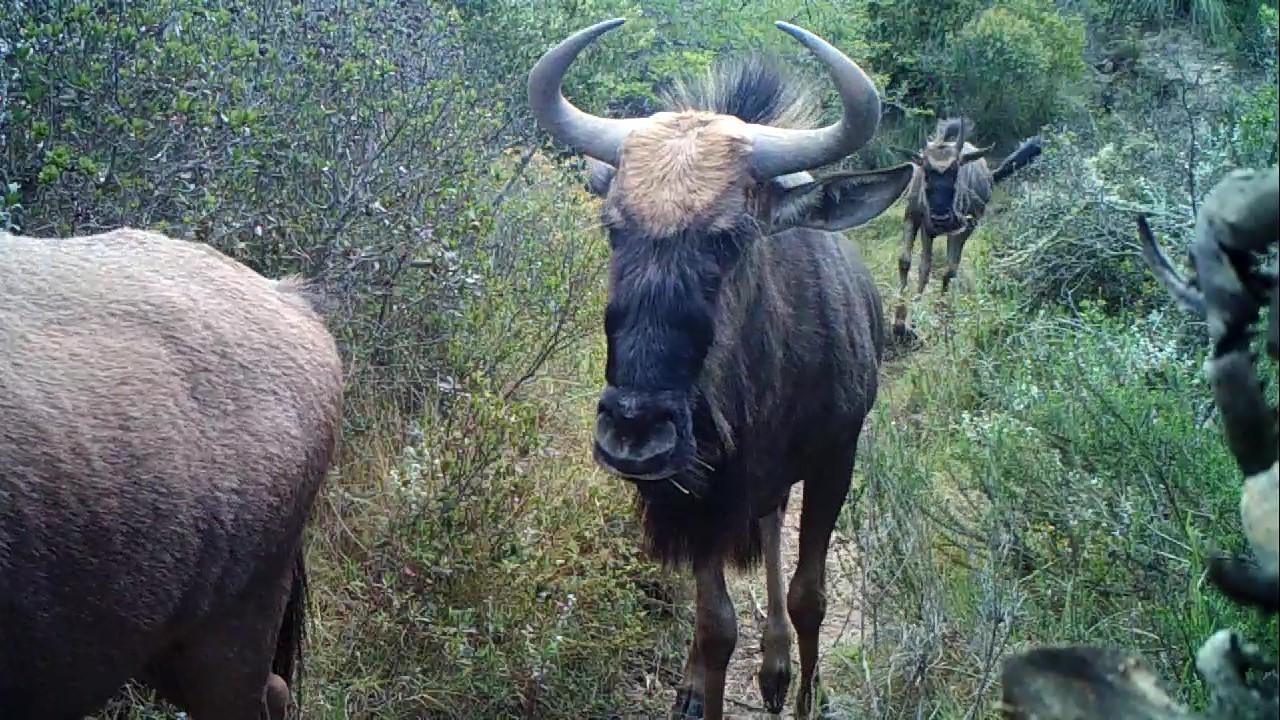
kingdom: Animalia
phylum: Chordata
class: Mammalia
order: Artiodactyla
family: Bovidae
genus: Connochaetes
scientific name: Connochaetes taurinus
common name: Blue wildebeest
